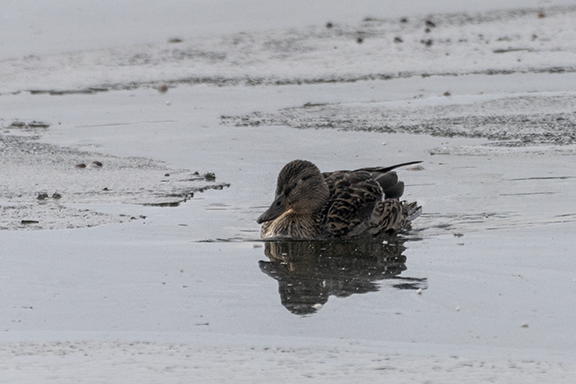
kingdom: Animalia
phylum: Chordata
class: Aves
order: Anseriformes
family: Anatidae
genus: Anas
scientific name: Anas platyrhynchos
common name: Mallard
